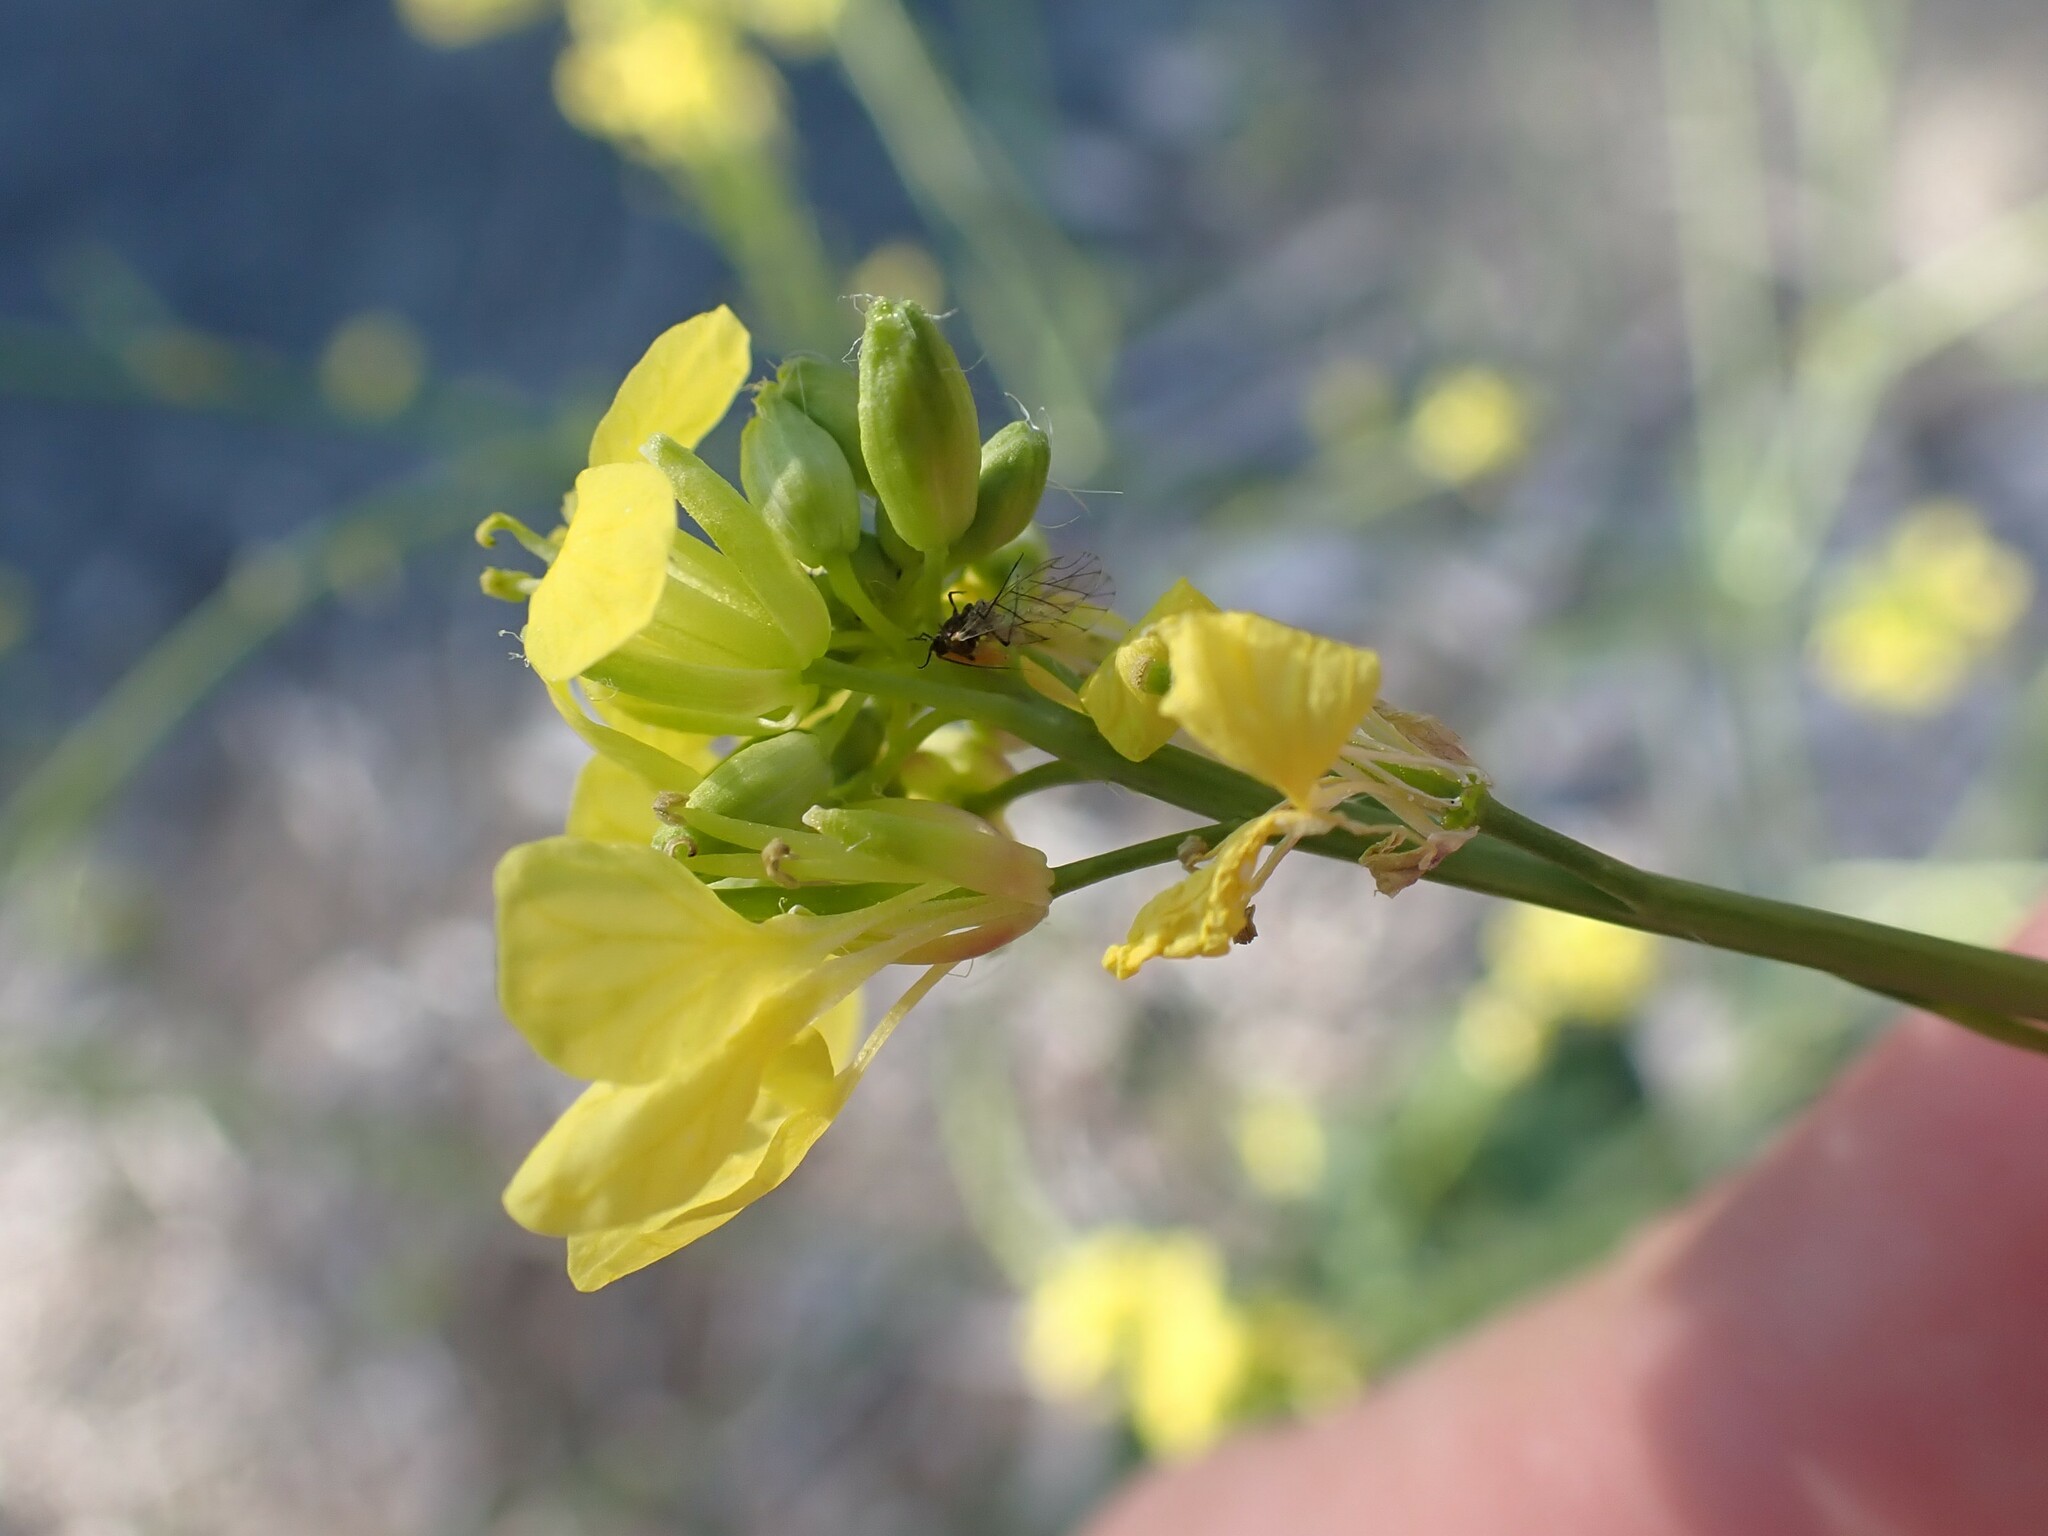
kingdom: Plantae
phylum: Tracheophyta
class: Magnoliopsida
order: Brassicales
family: Brassicaceae
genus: Hirschfeldia
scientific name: Hirschfeldia incana
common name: Hoary mustard
